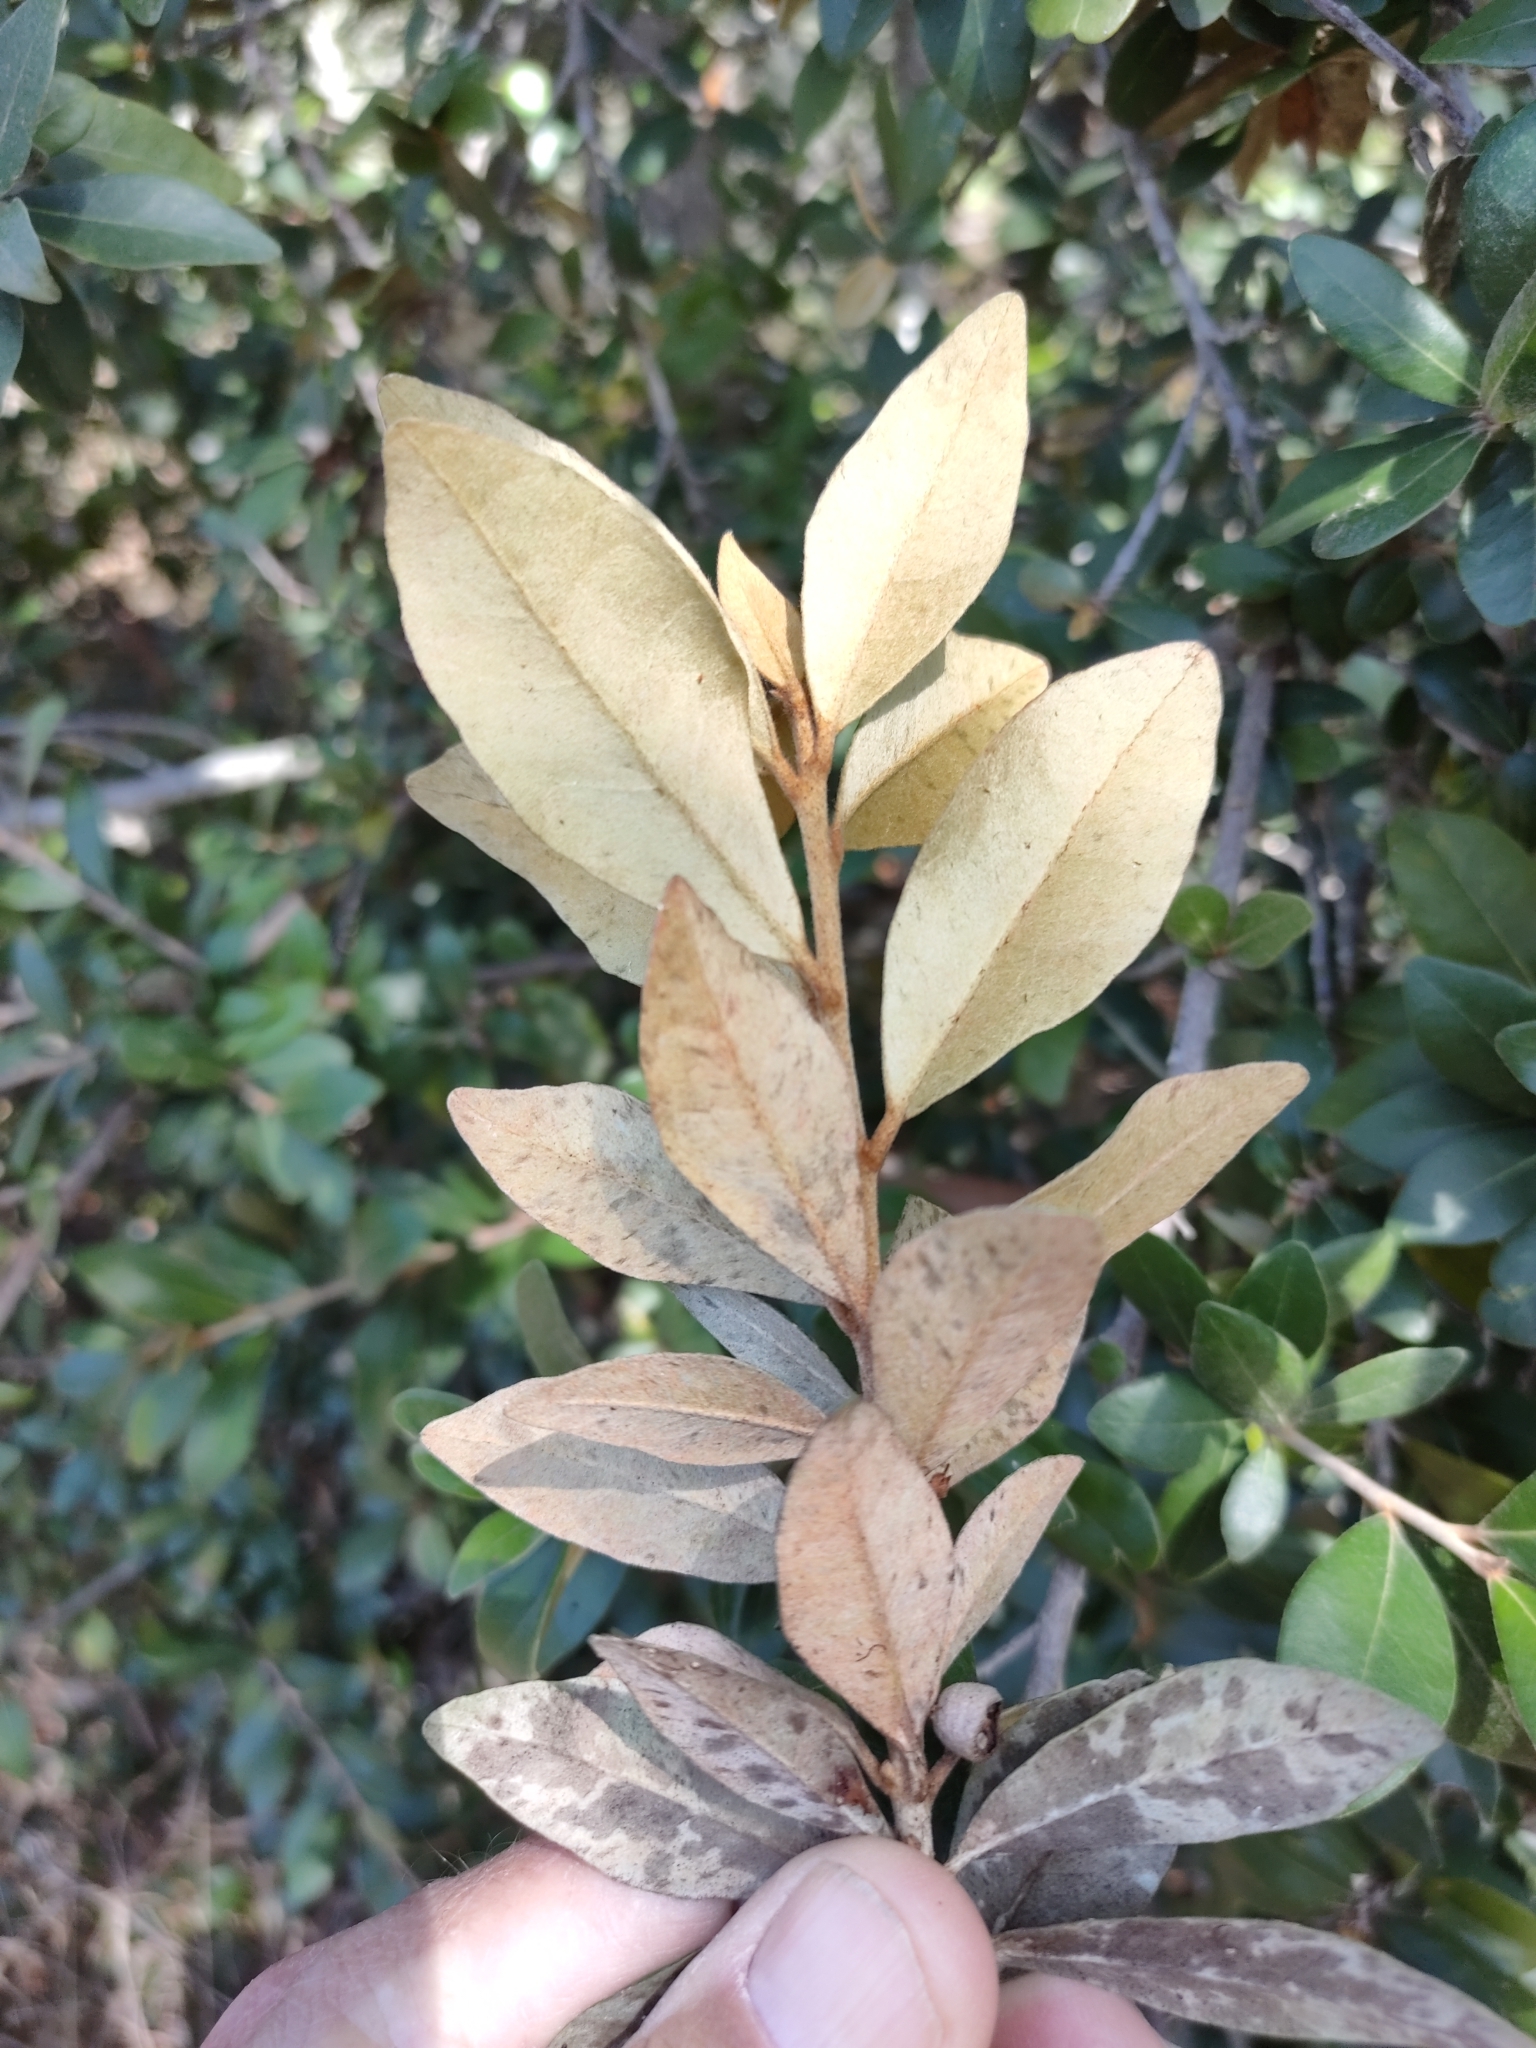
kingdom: Plantae
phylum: Tracheophyta
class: Magnoliopsida
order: Ericales
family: Sapotaceae
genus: Sersalisia
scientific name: Sersalisia sericea
